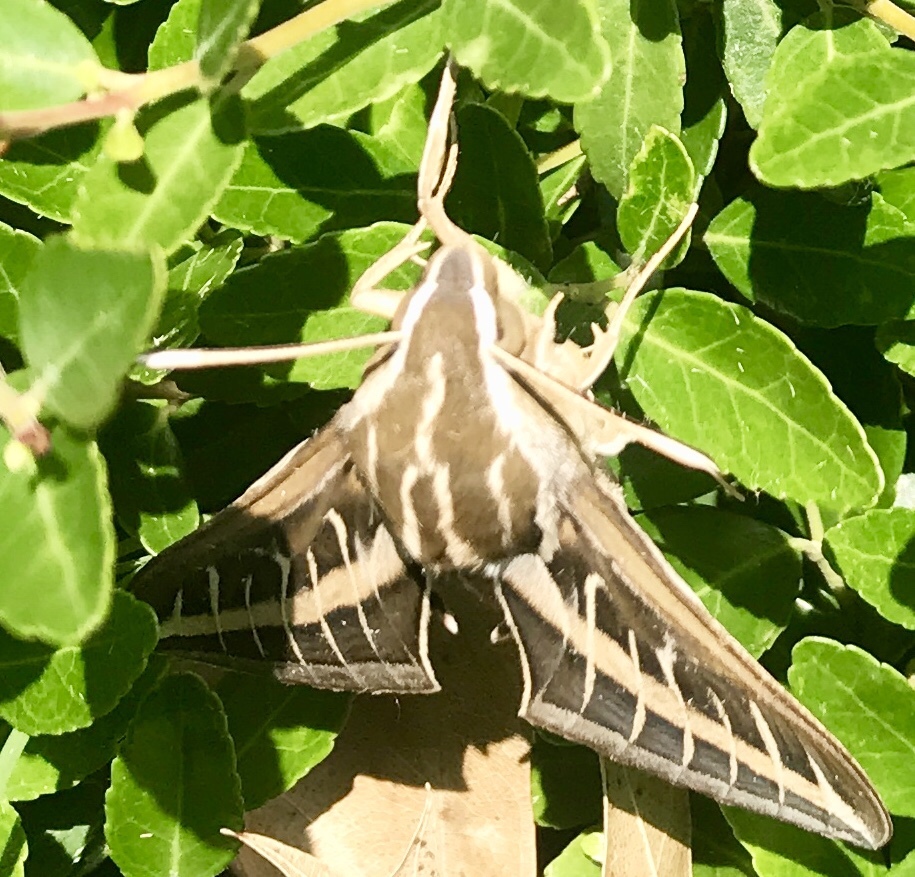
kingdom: Animalia
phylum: Arthropoda
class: Insecta
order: Lepidoptera
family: Sphingidae
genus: Hyles
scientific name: Hyles lineata
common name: White-lined sphinx
